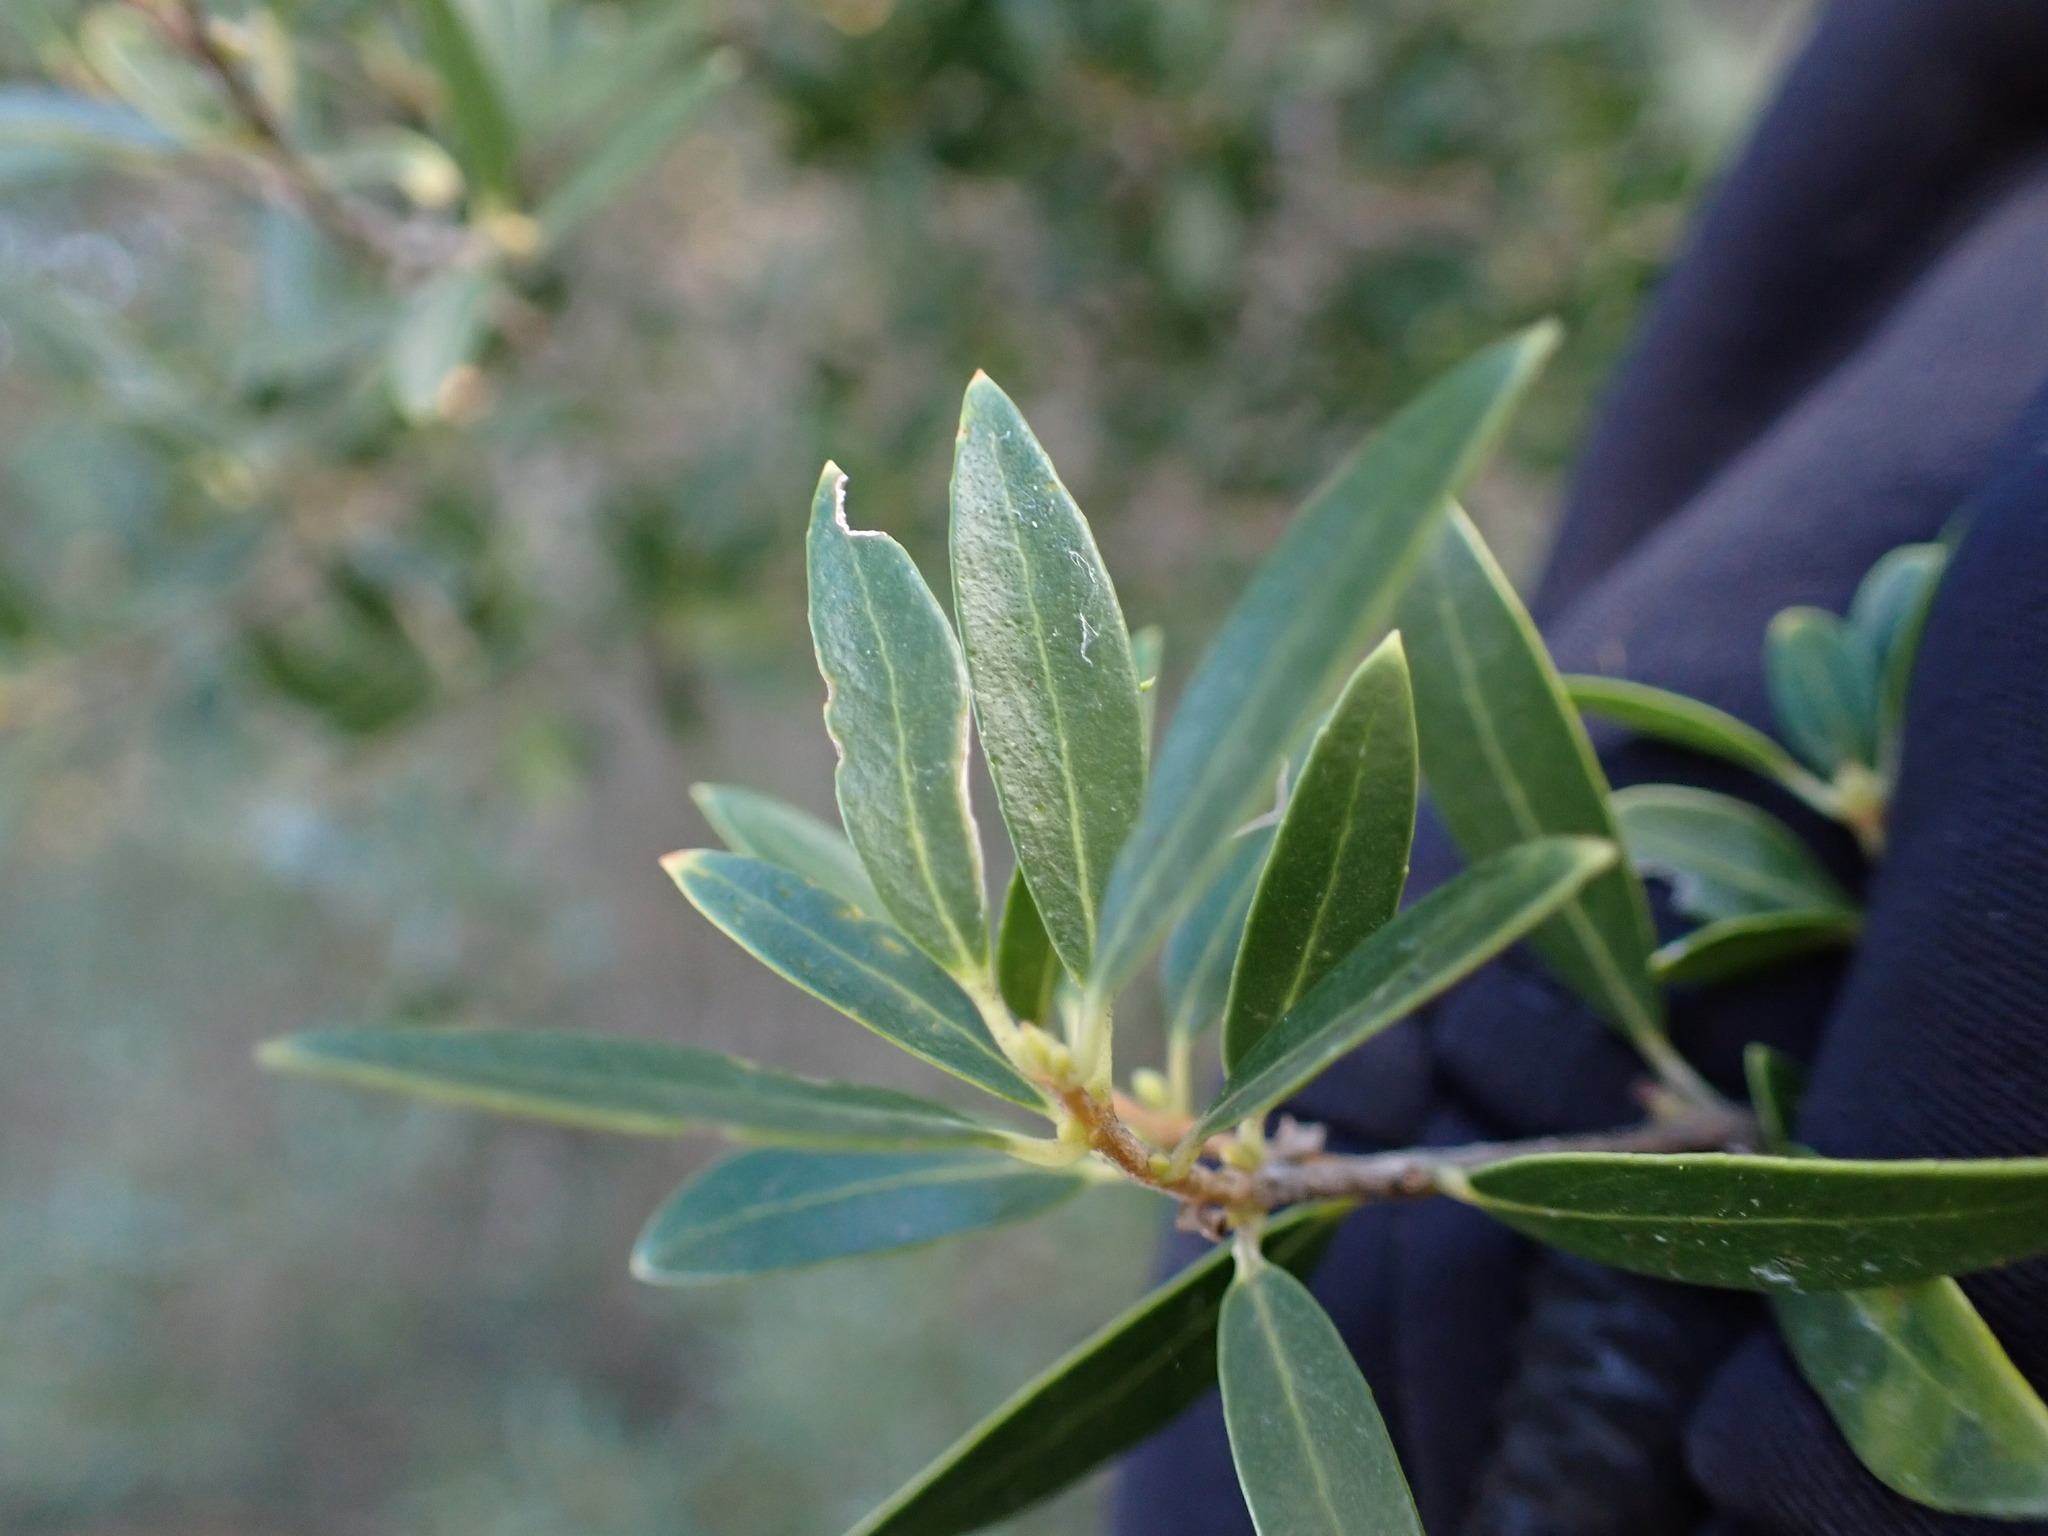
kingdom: Plantae
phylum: Tracheophyta
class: Magnoliopsida
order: Lamiales
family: Oleaceae
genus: Phillyrea
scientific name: Phillyrea angustifolia
